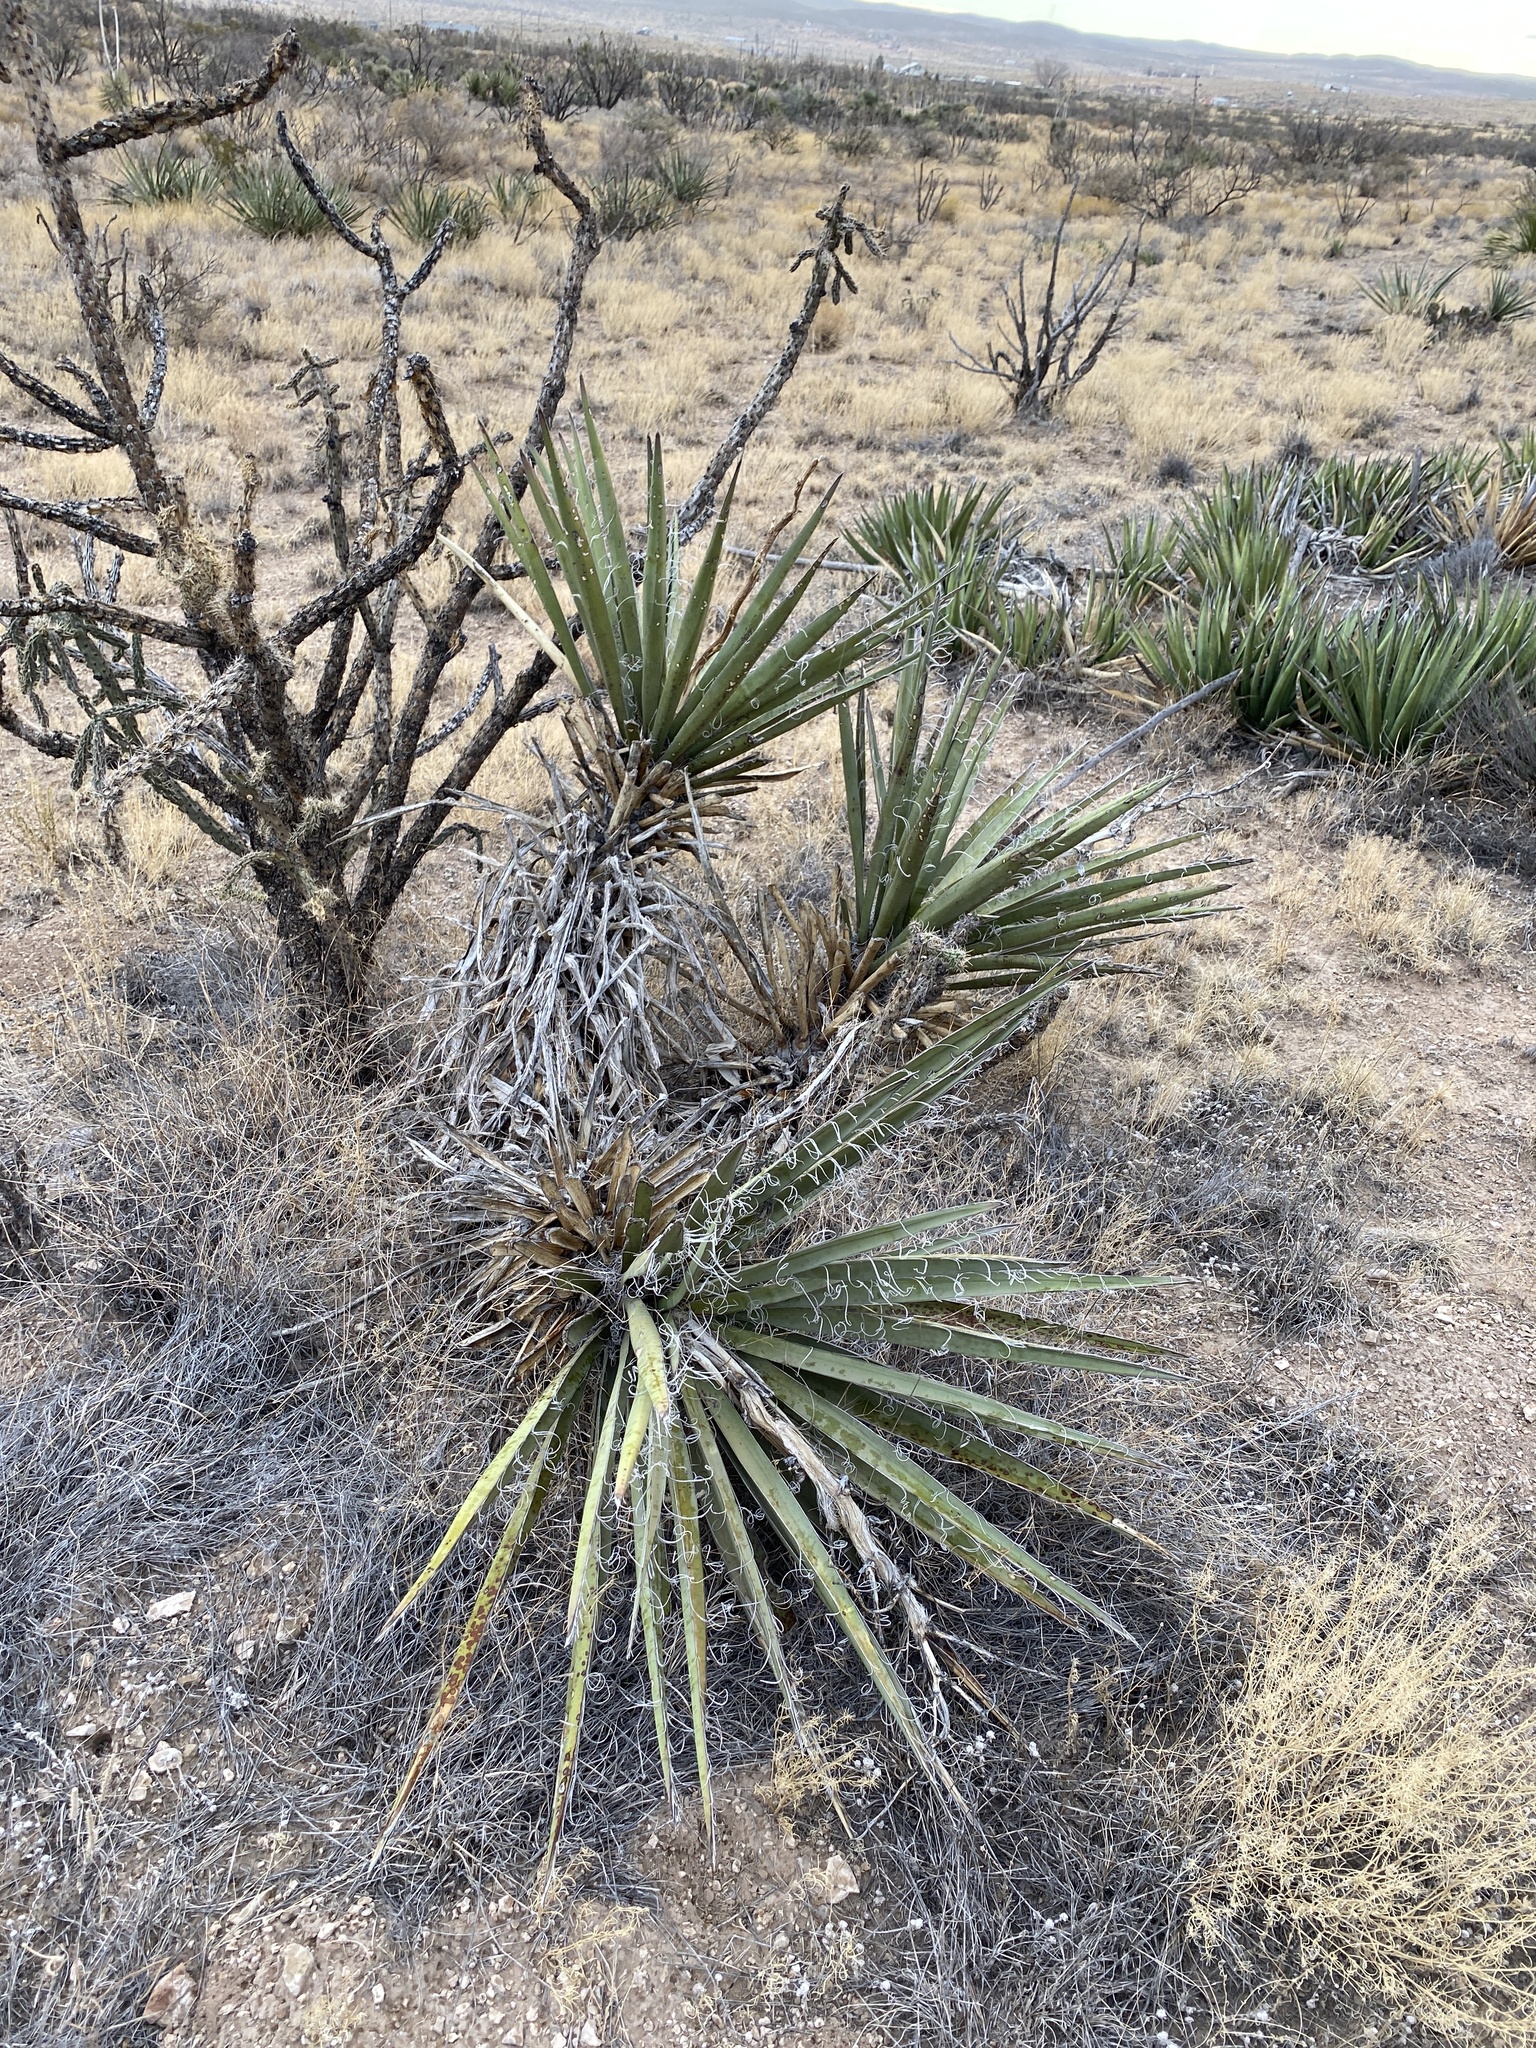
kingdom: Plantae
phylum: Tracheophyta
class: Liliopsida
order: Asparagales
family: Asparagaceae
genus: Yucca
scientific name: Yucca baccata
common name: Banana yucca
